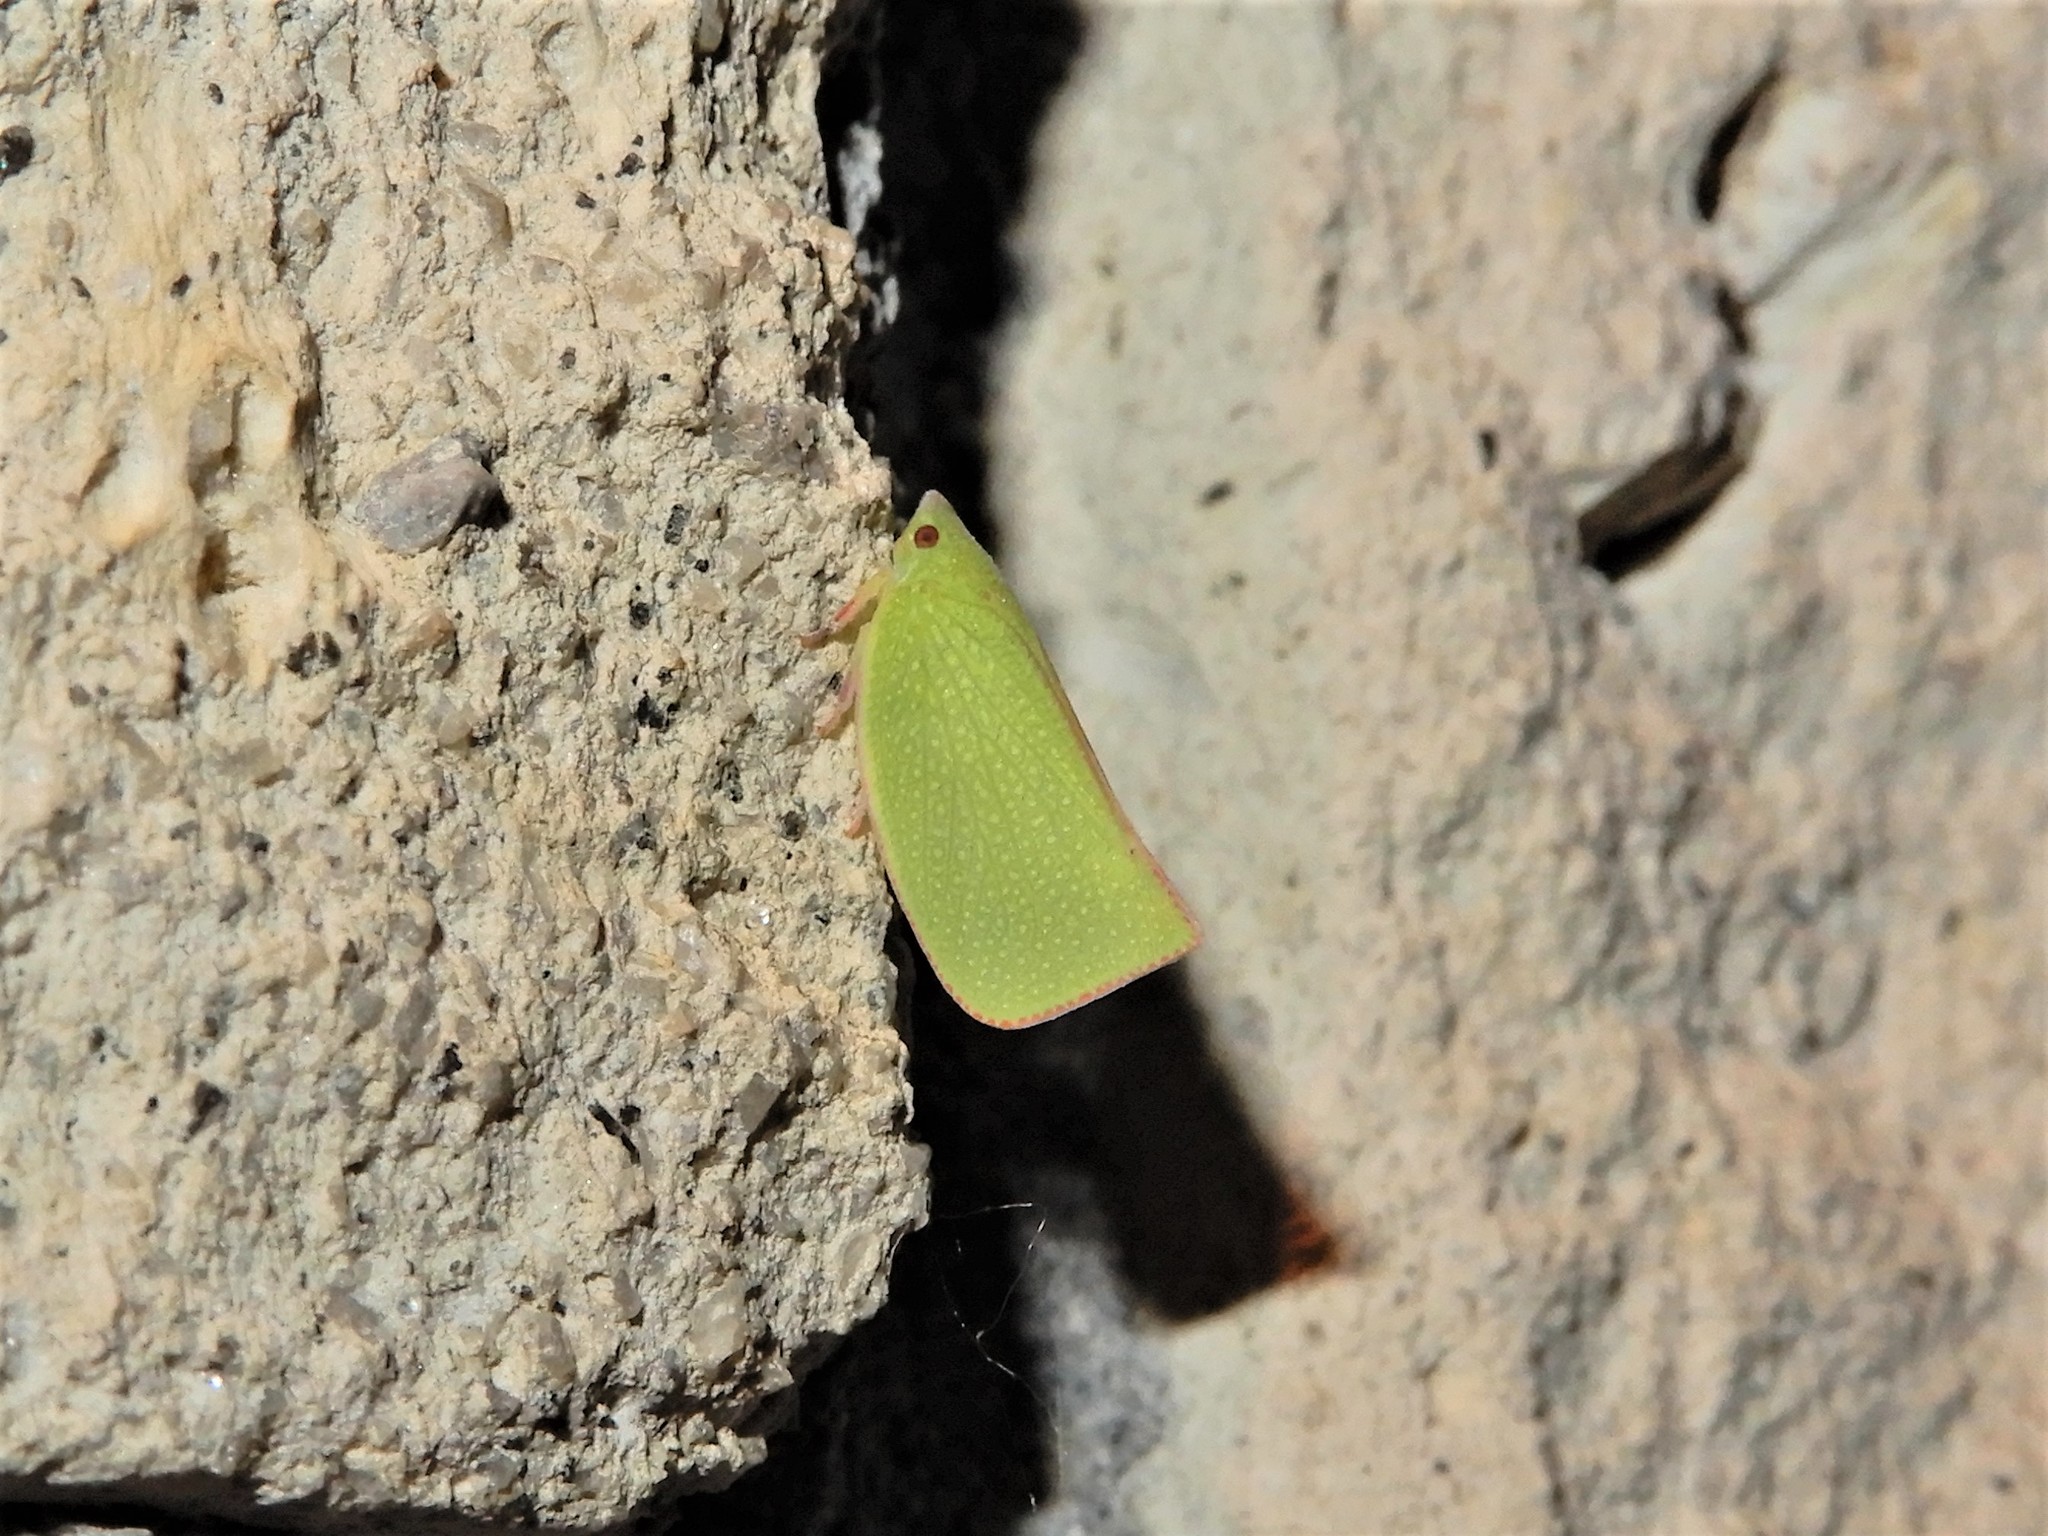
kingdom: Animalia
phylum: Arthropoda
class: Insecta
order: Hemiptera
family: Flatidae
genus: Siphanta
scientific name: Siphanta acuta
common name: Torpedo bug
